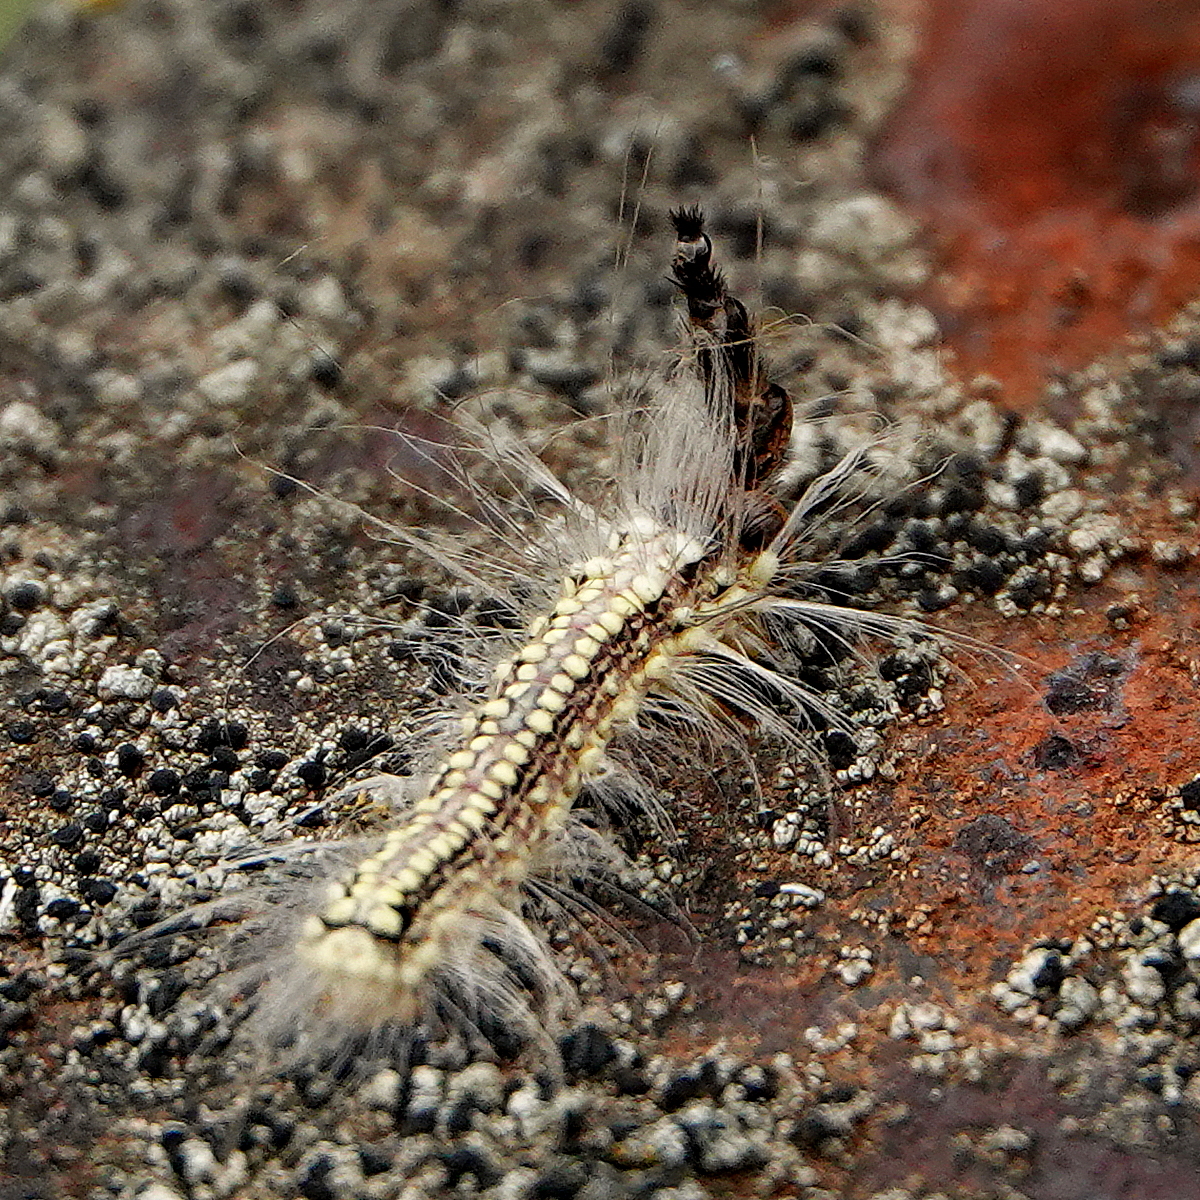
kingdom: Animalia
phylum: Arthropoda
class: Insecta
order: Lepidoptera
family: Nolidae
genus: Uraba
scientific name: Uraba lugens
